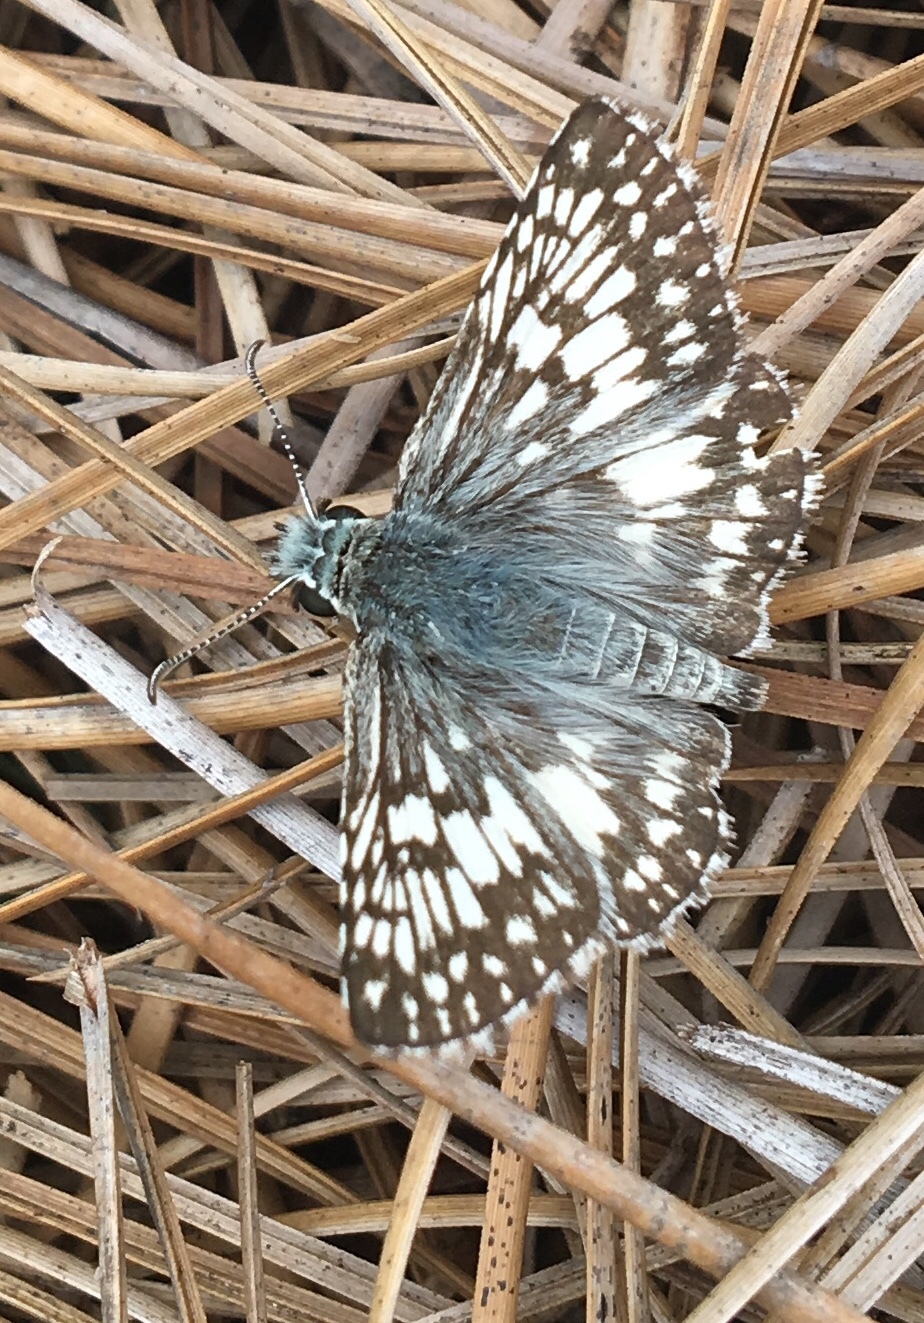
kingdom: Animalia
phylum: Arthropoda
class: Insecta
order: Lepidoptera
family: Hesperiidae
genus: Burnsius
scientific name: Burnsius albezens
